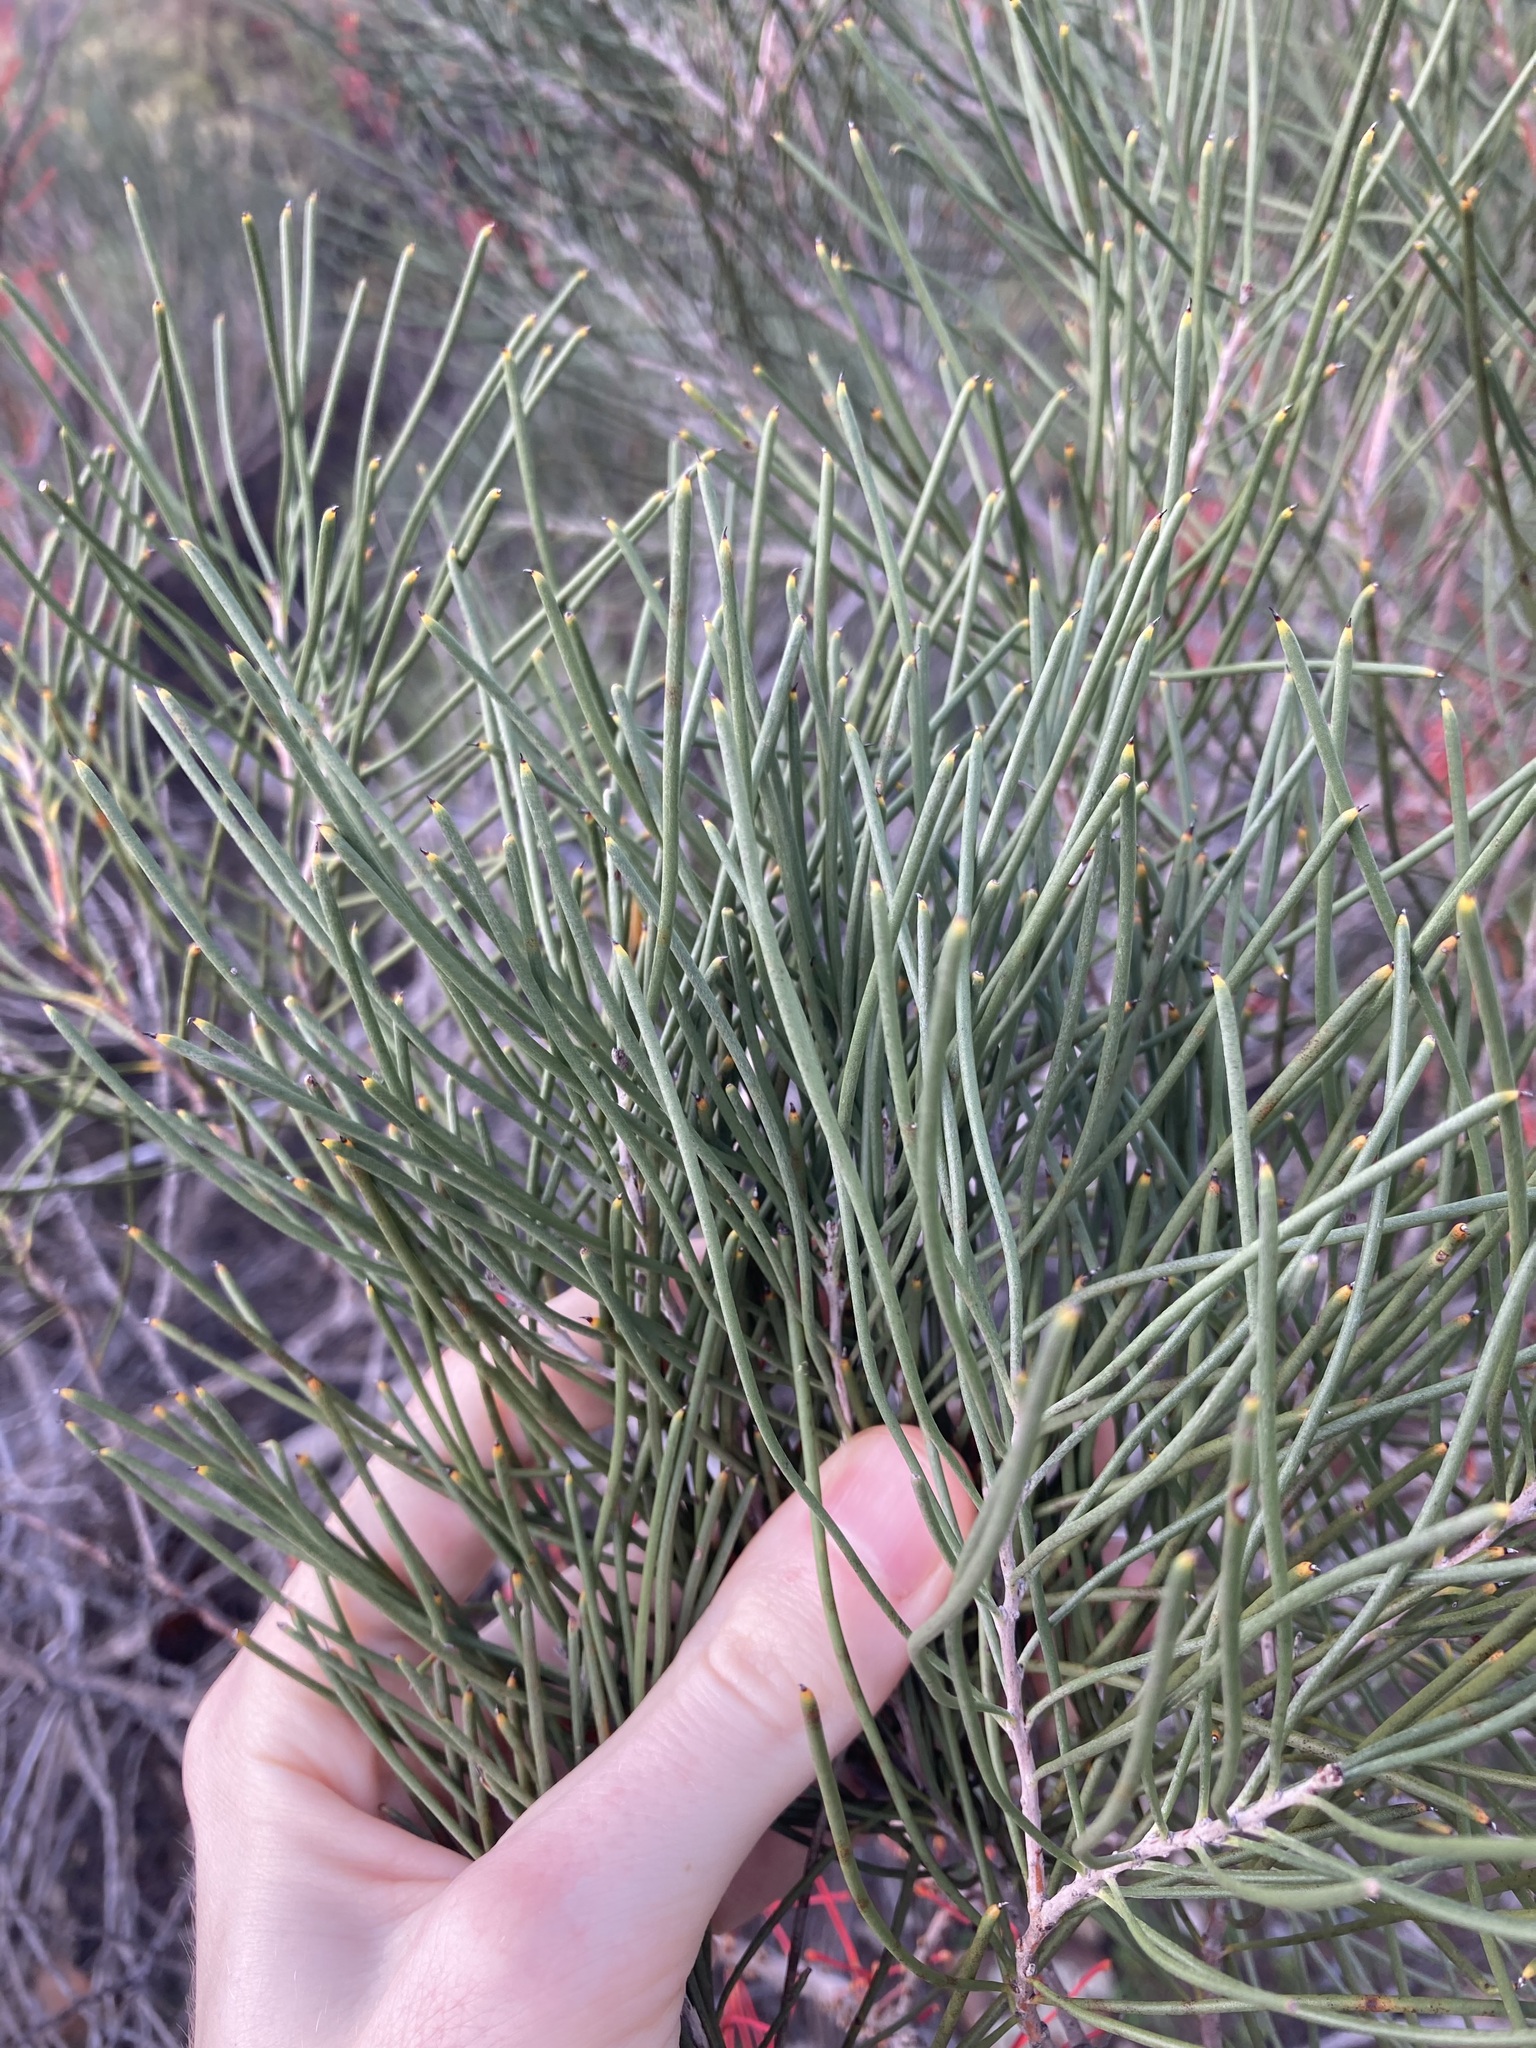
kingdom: Plantae
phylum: Tracheophyta
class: Magnoliopsida
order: Proteales
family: Proteaceae
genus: Hakea
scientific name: Hakea orthorrhyncha
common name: Bird beak hakea
